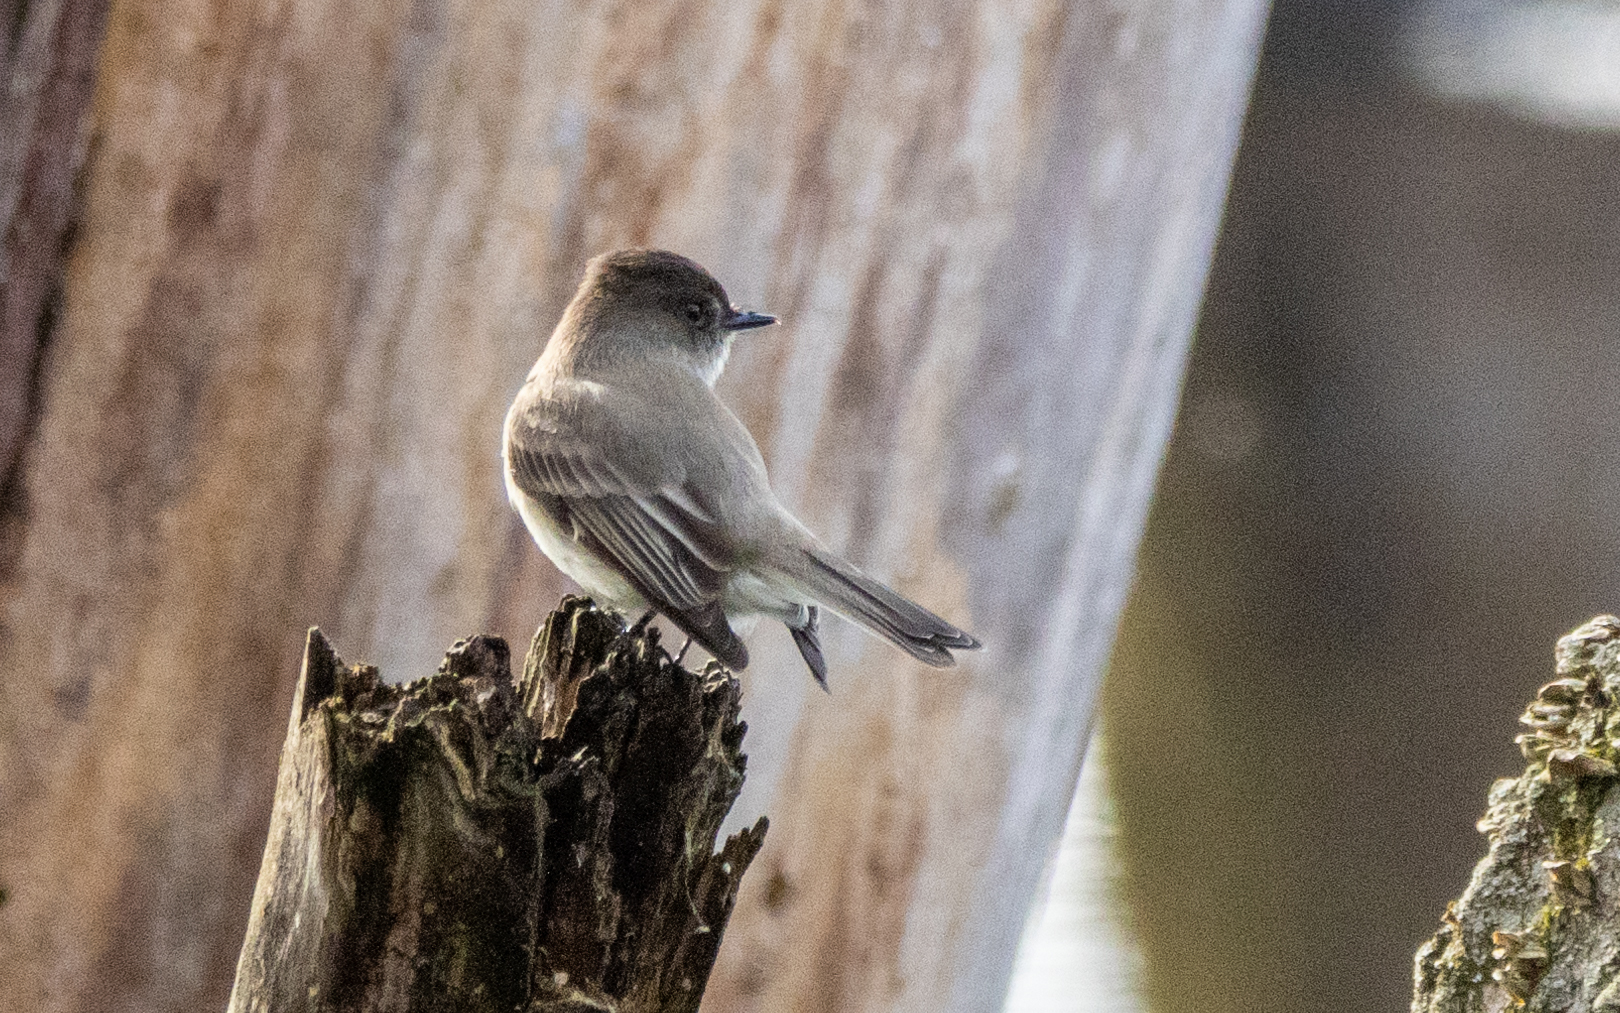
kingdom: Animalia
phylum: Chordata
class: Aves
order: Passeriformes
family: Tyrannidae
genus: Sayornis
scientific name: Sayornis phoebe
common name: Eastern phoebe
